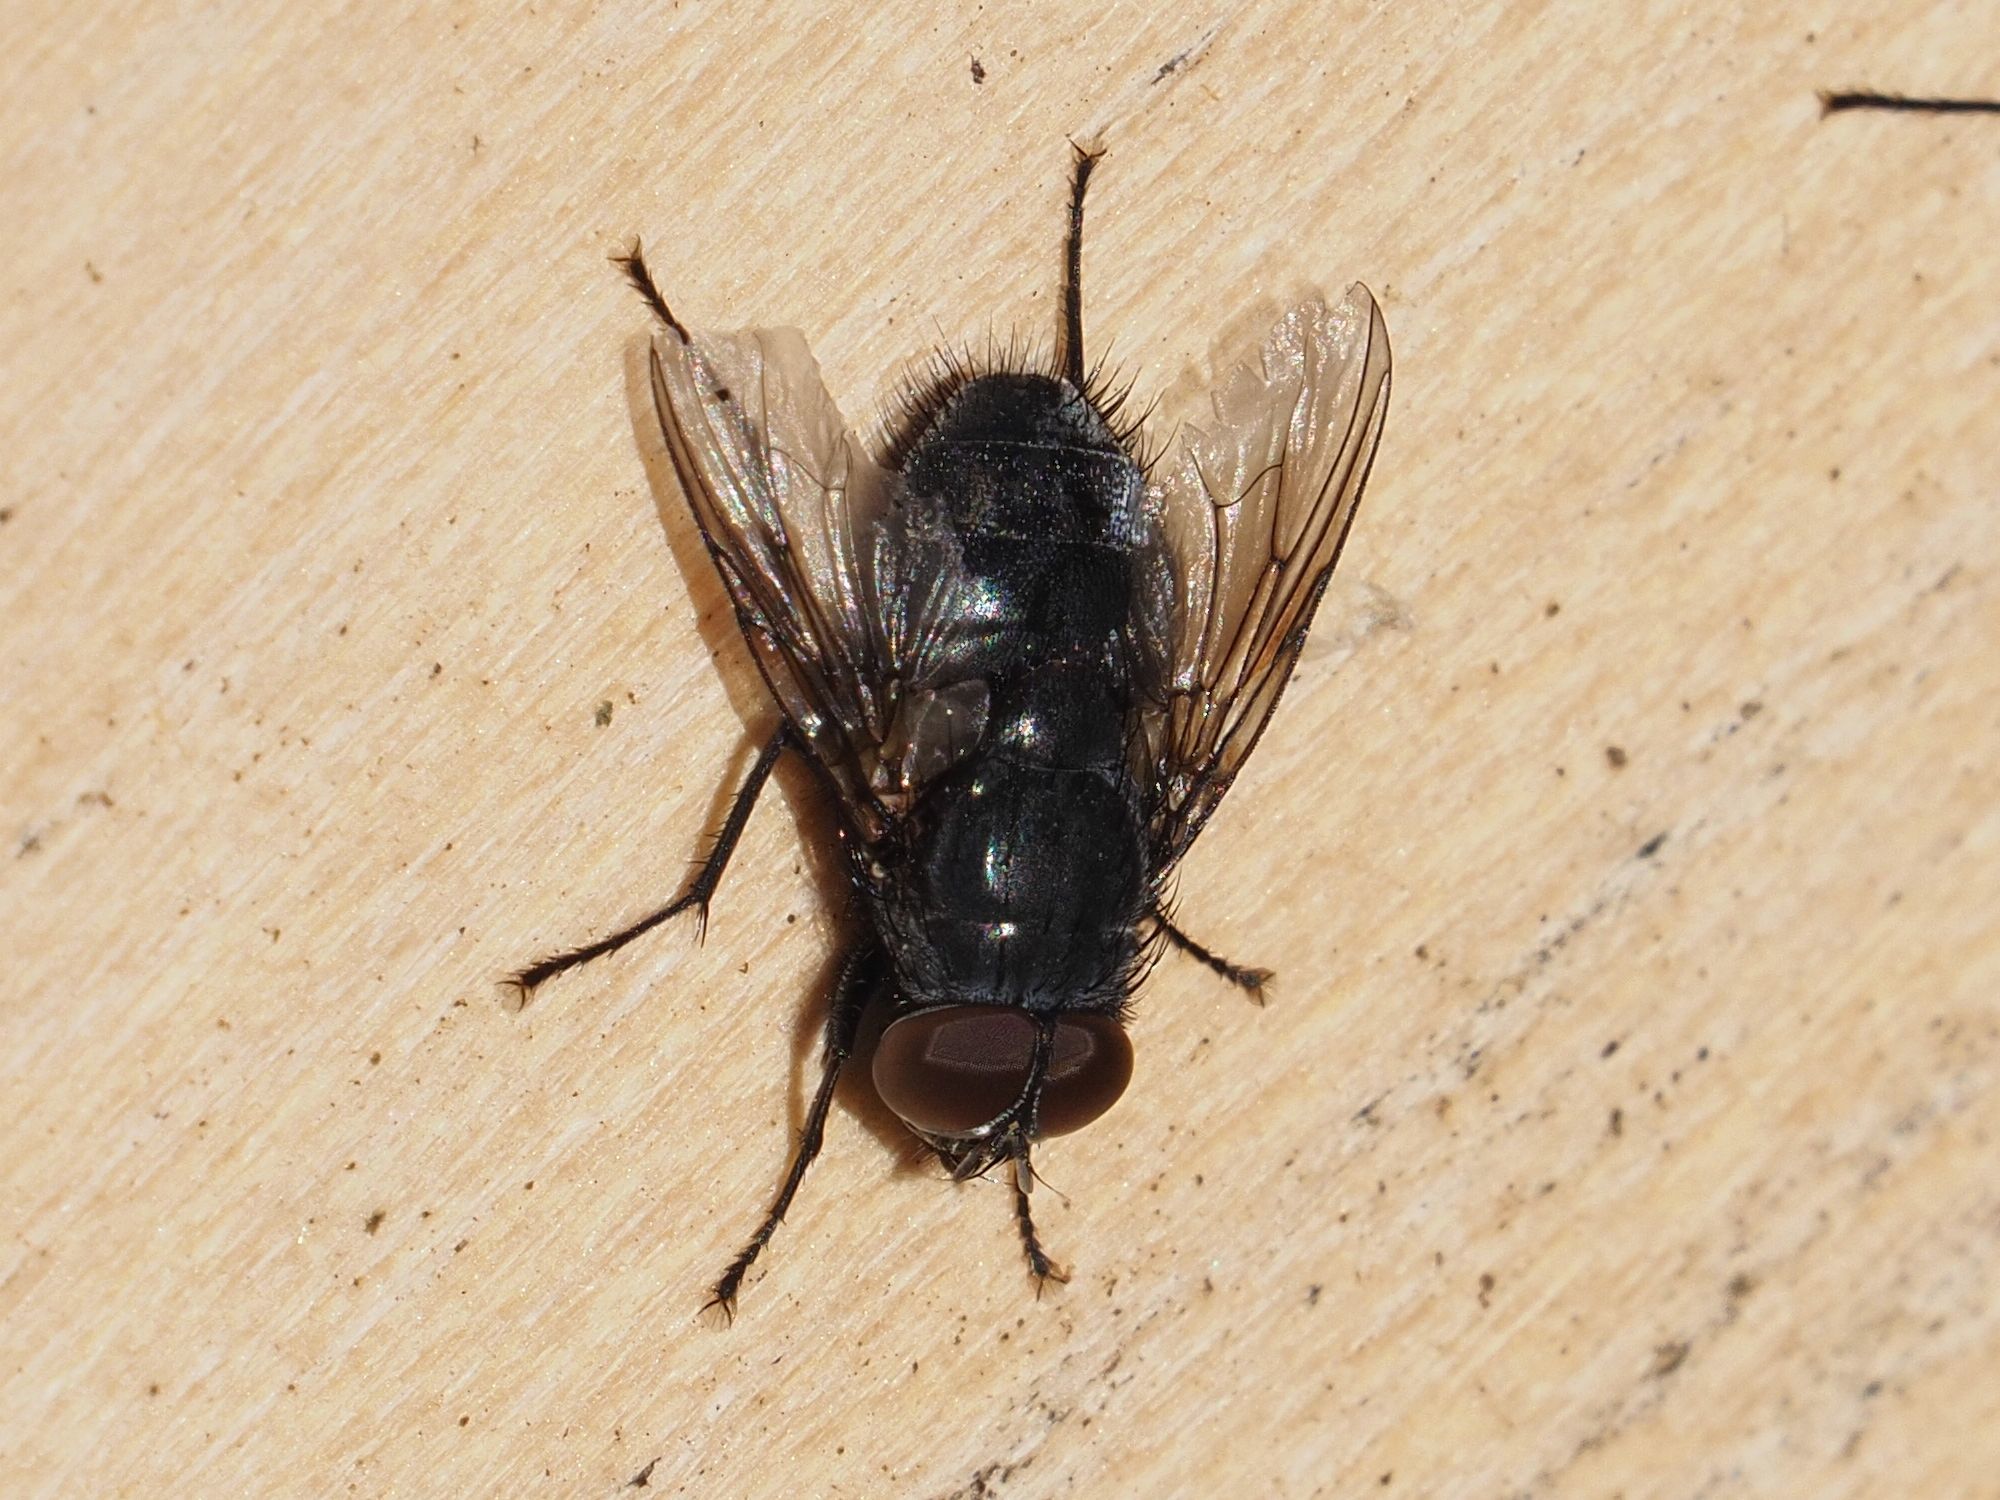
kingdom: Animalia
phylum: Arthropoda
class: Insecta
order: Diptera
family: Muscidae
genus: Muscina
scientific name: Muscina pascuorum
